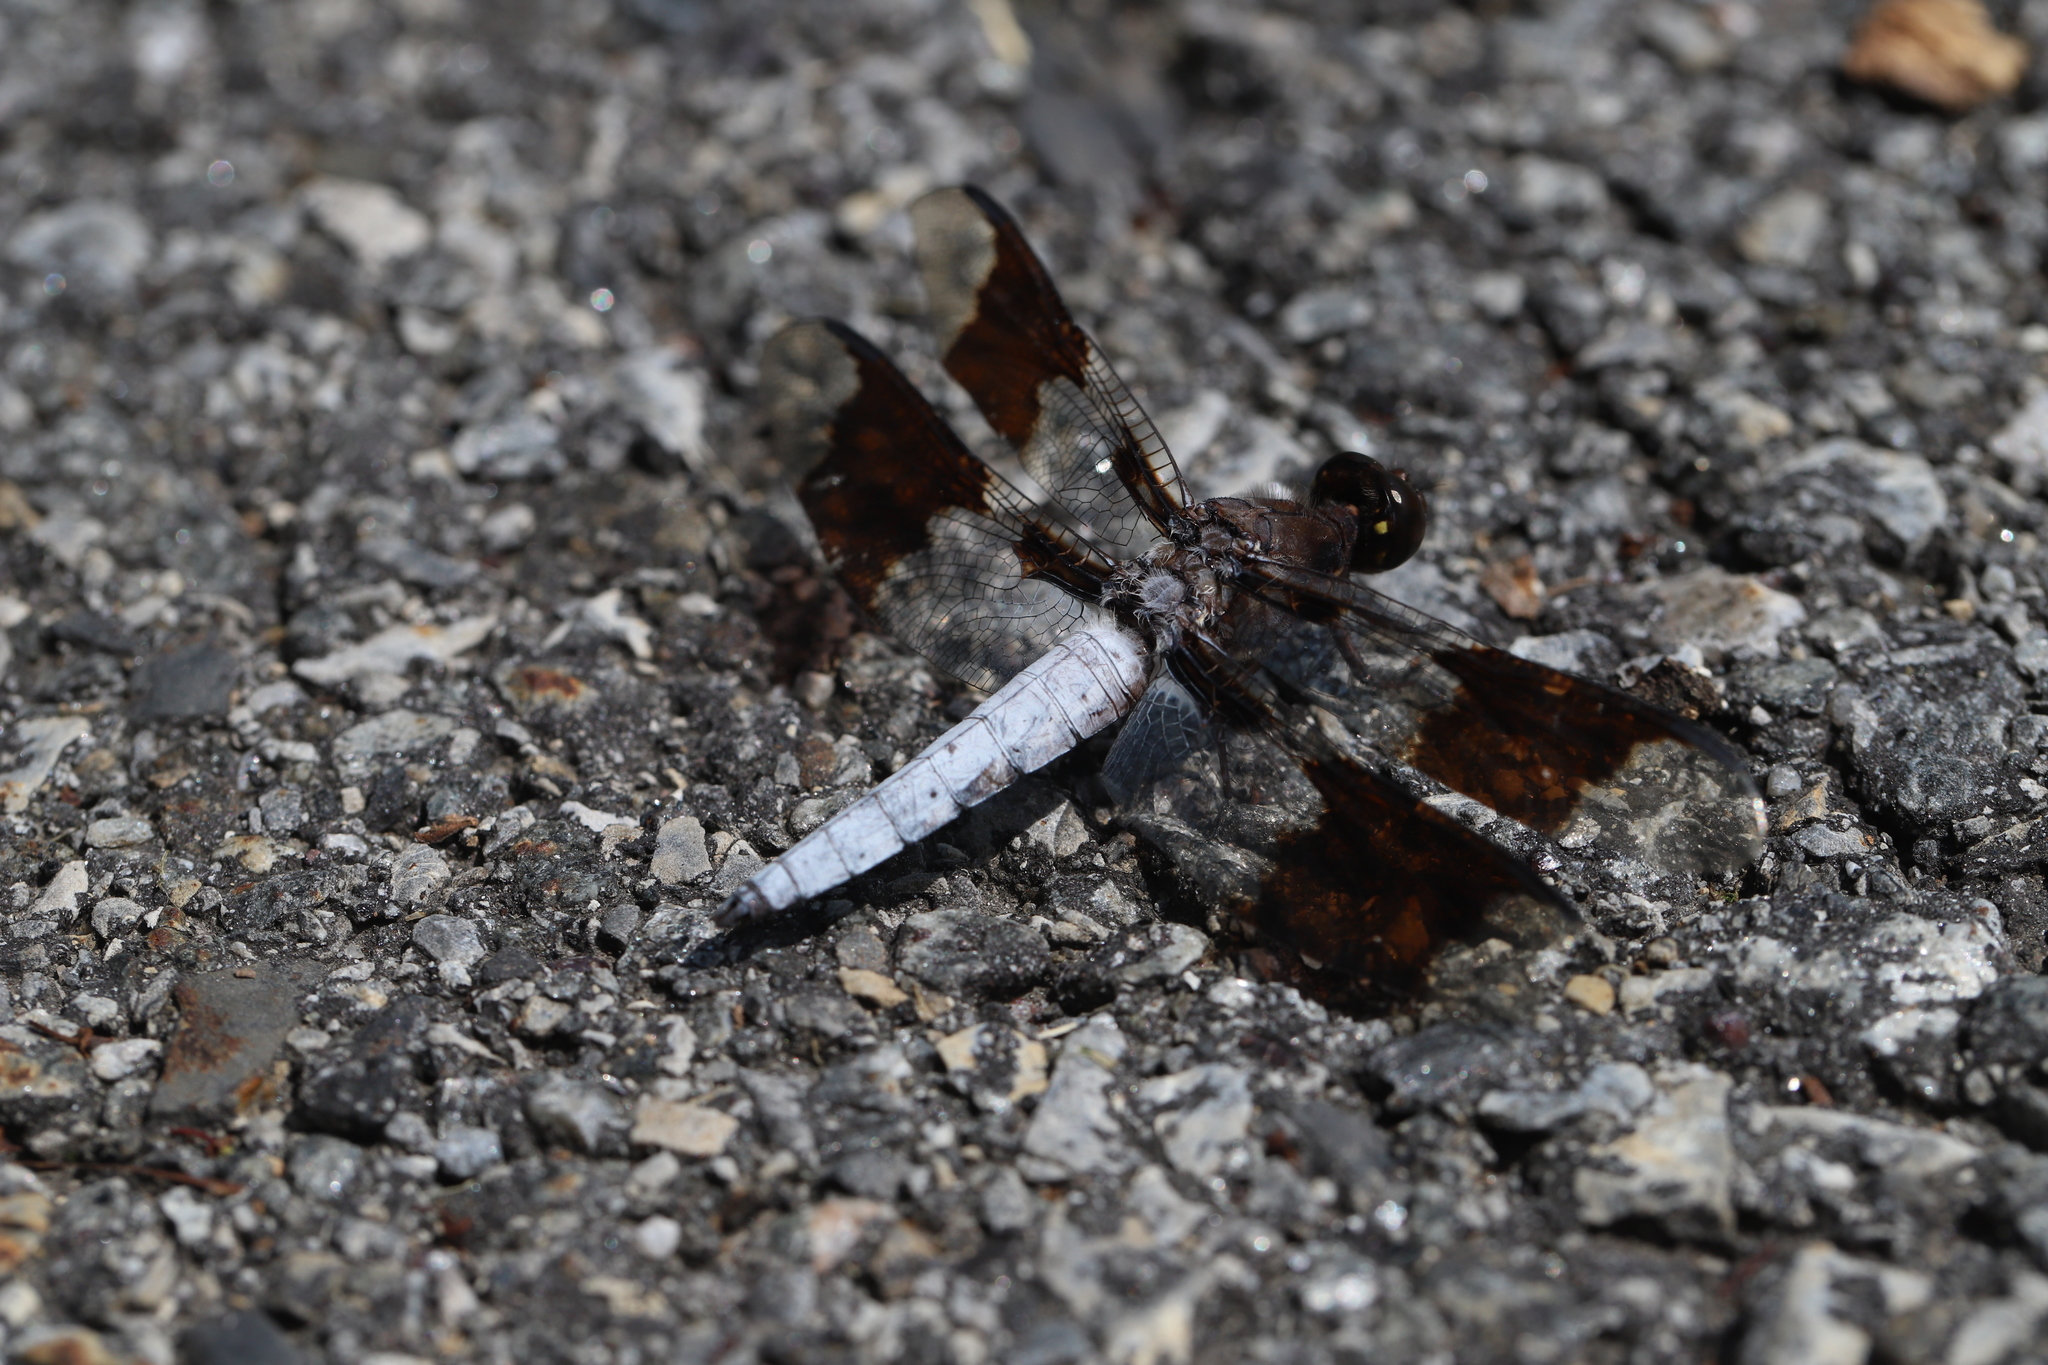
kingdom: Animalia
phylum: Arthropoda
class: Insecta
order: Odonata
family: Libellulidae
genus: Plathemis
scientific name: Plathemis lydia
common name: Common whitetail
